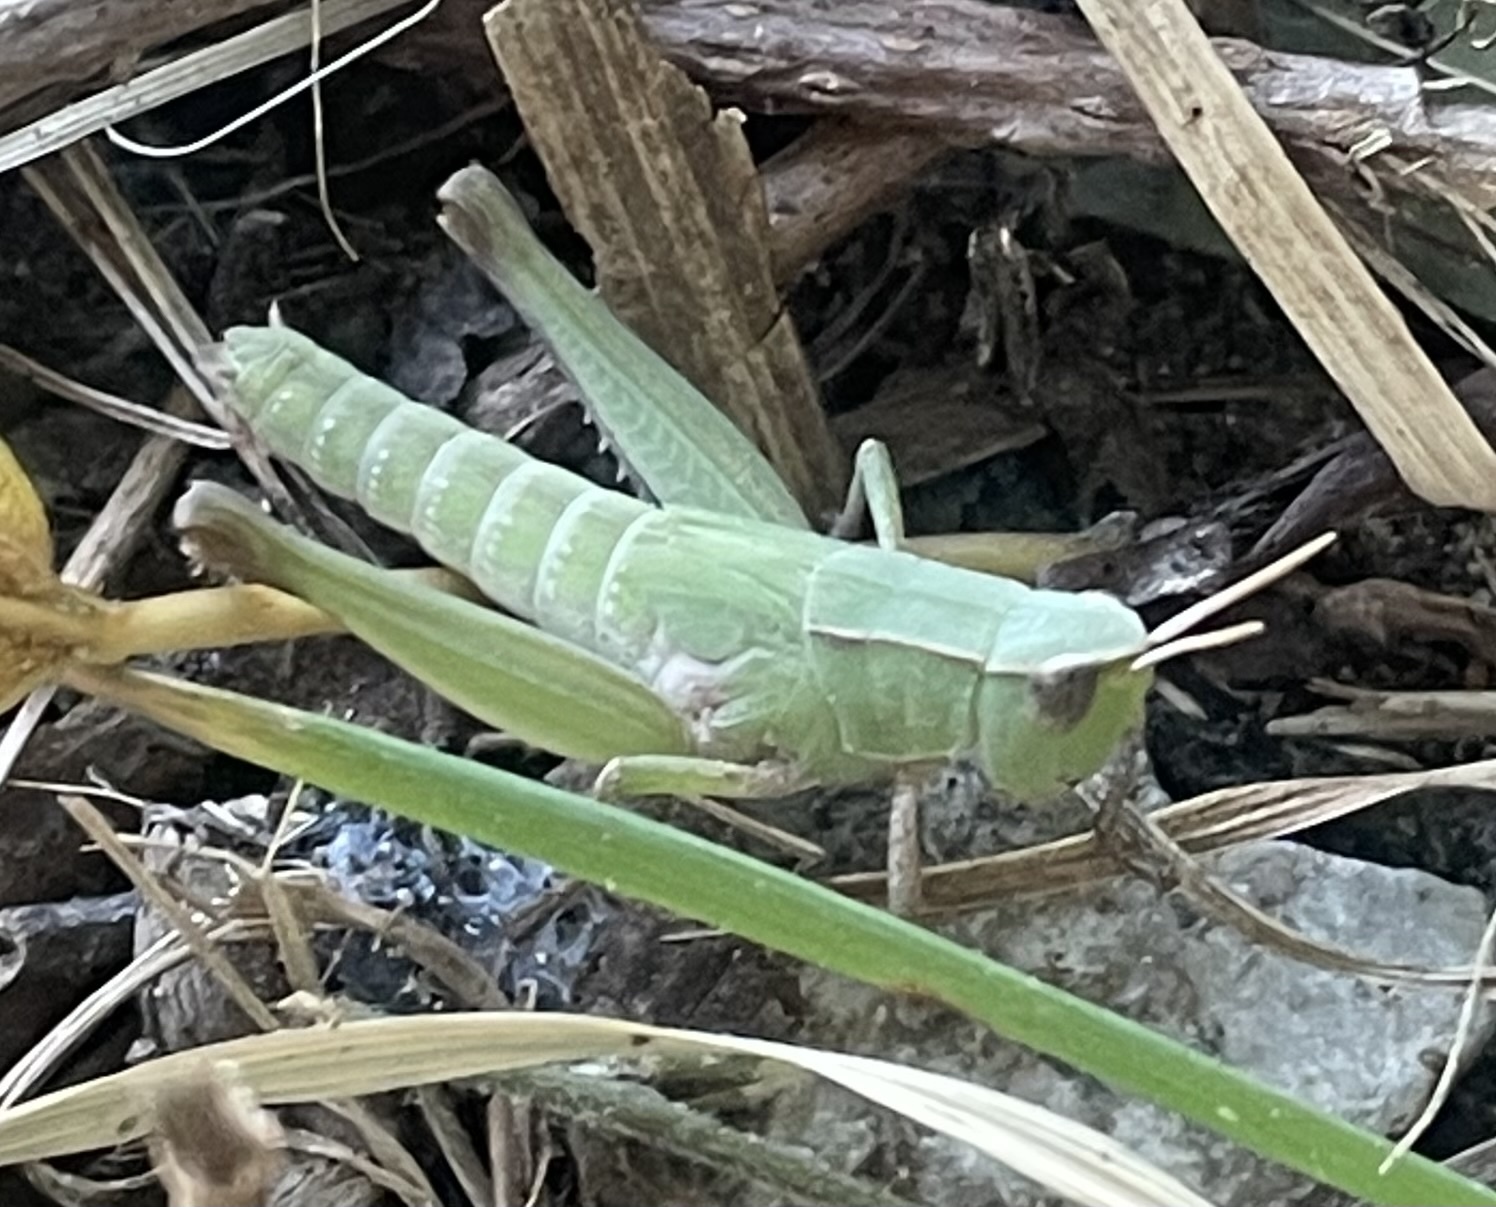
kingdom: Animalia
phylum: Arthropoda
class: Insecta
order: Orthoptera
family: Acrididae
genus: Dichromorpha
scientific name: Dichromorpha viridis
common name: Short-winged green grasshopper
